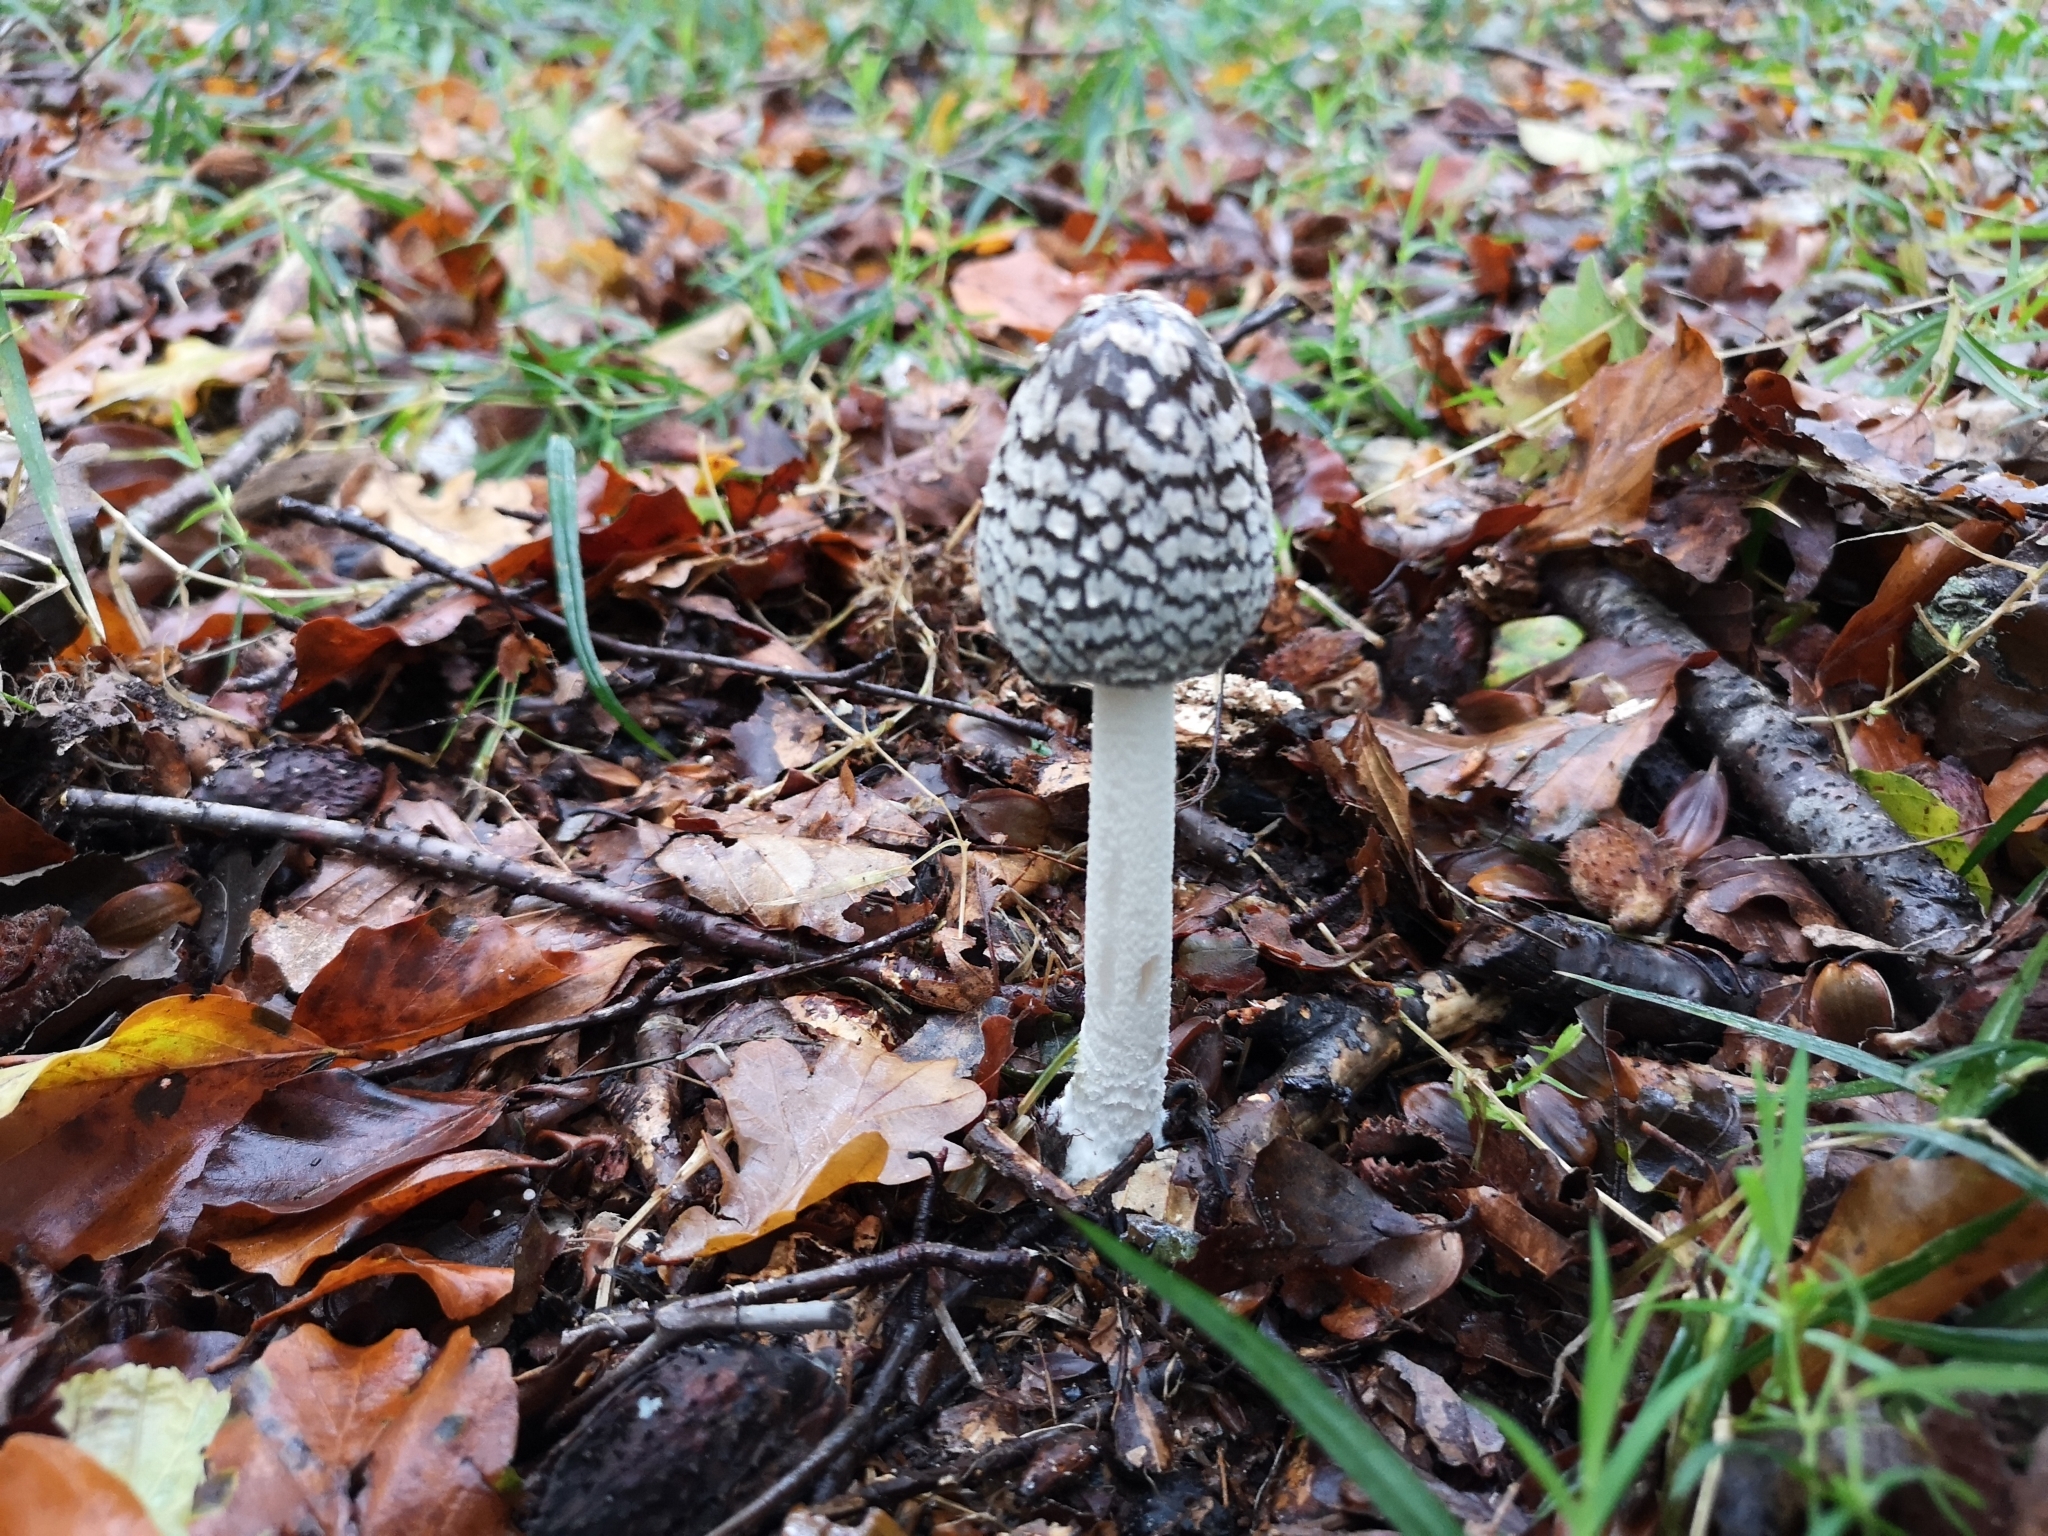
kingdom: Fungi
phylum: Basidiomycota
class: Agaricomycetes
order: Agaricales
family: Psathyrellaceae
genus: Coprinopsis
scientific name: Coprinopsis picacea
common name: Magpie inkcap
